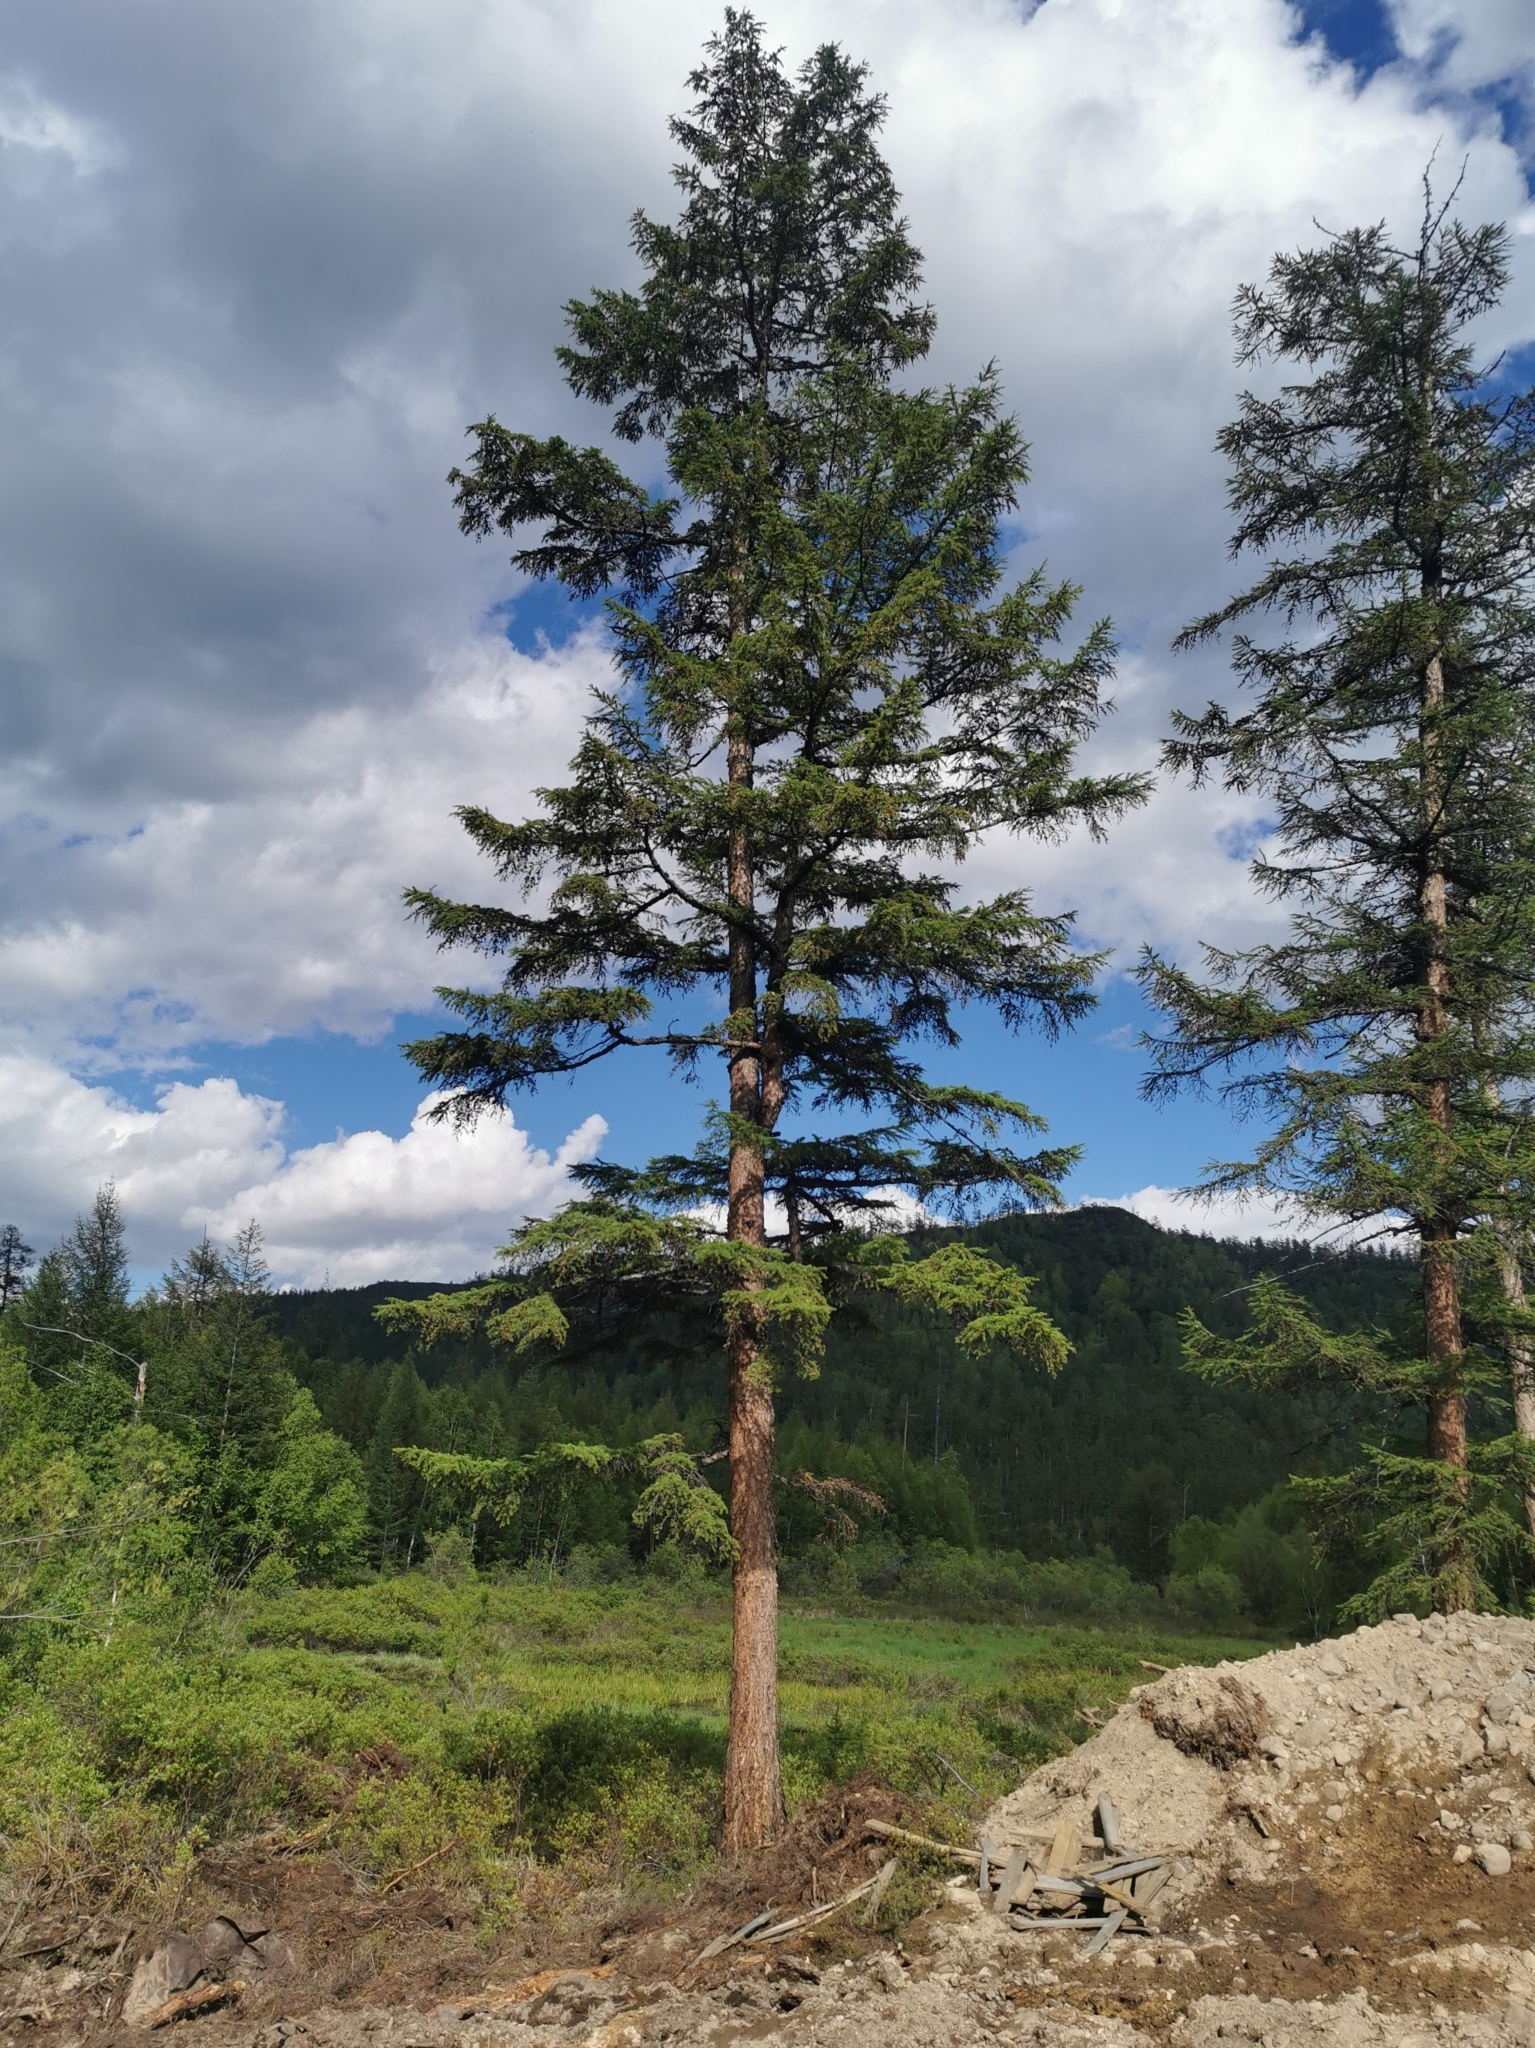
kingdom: Plantae
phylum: Tracheophyta
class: Pinopsida
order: Pinales
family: Pinaceae
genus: Larix
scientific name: Larix gmelinii
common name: Dahurian larch
